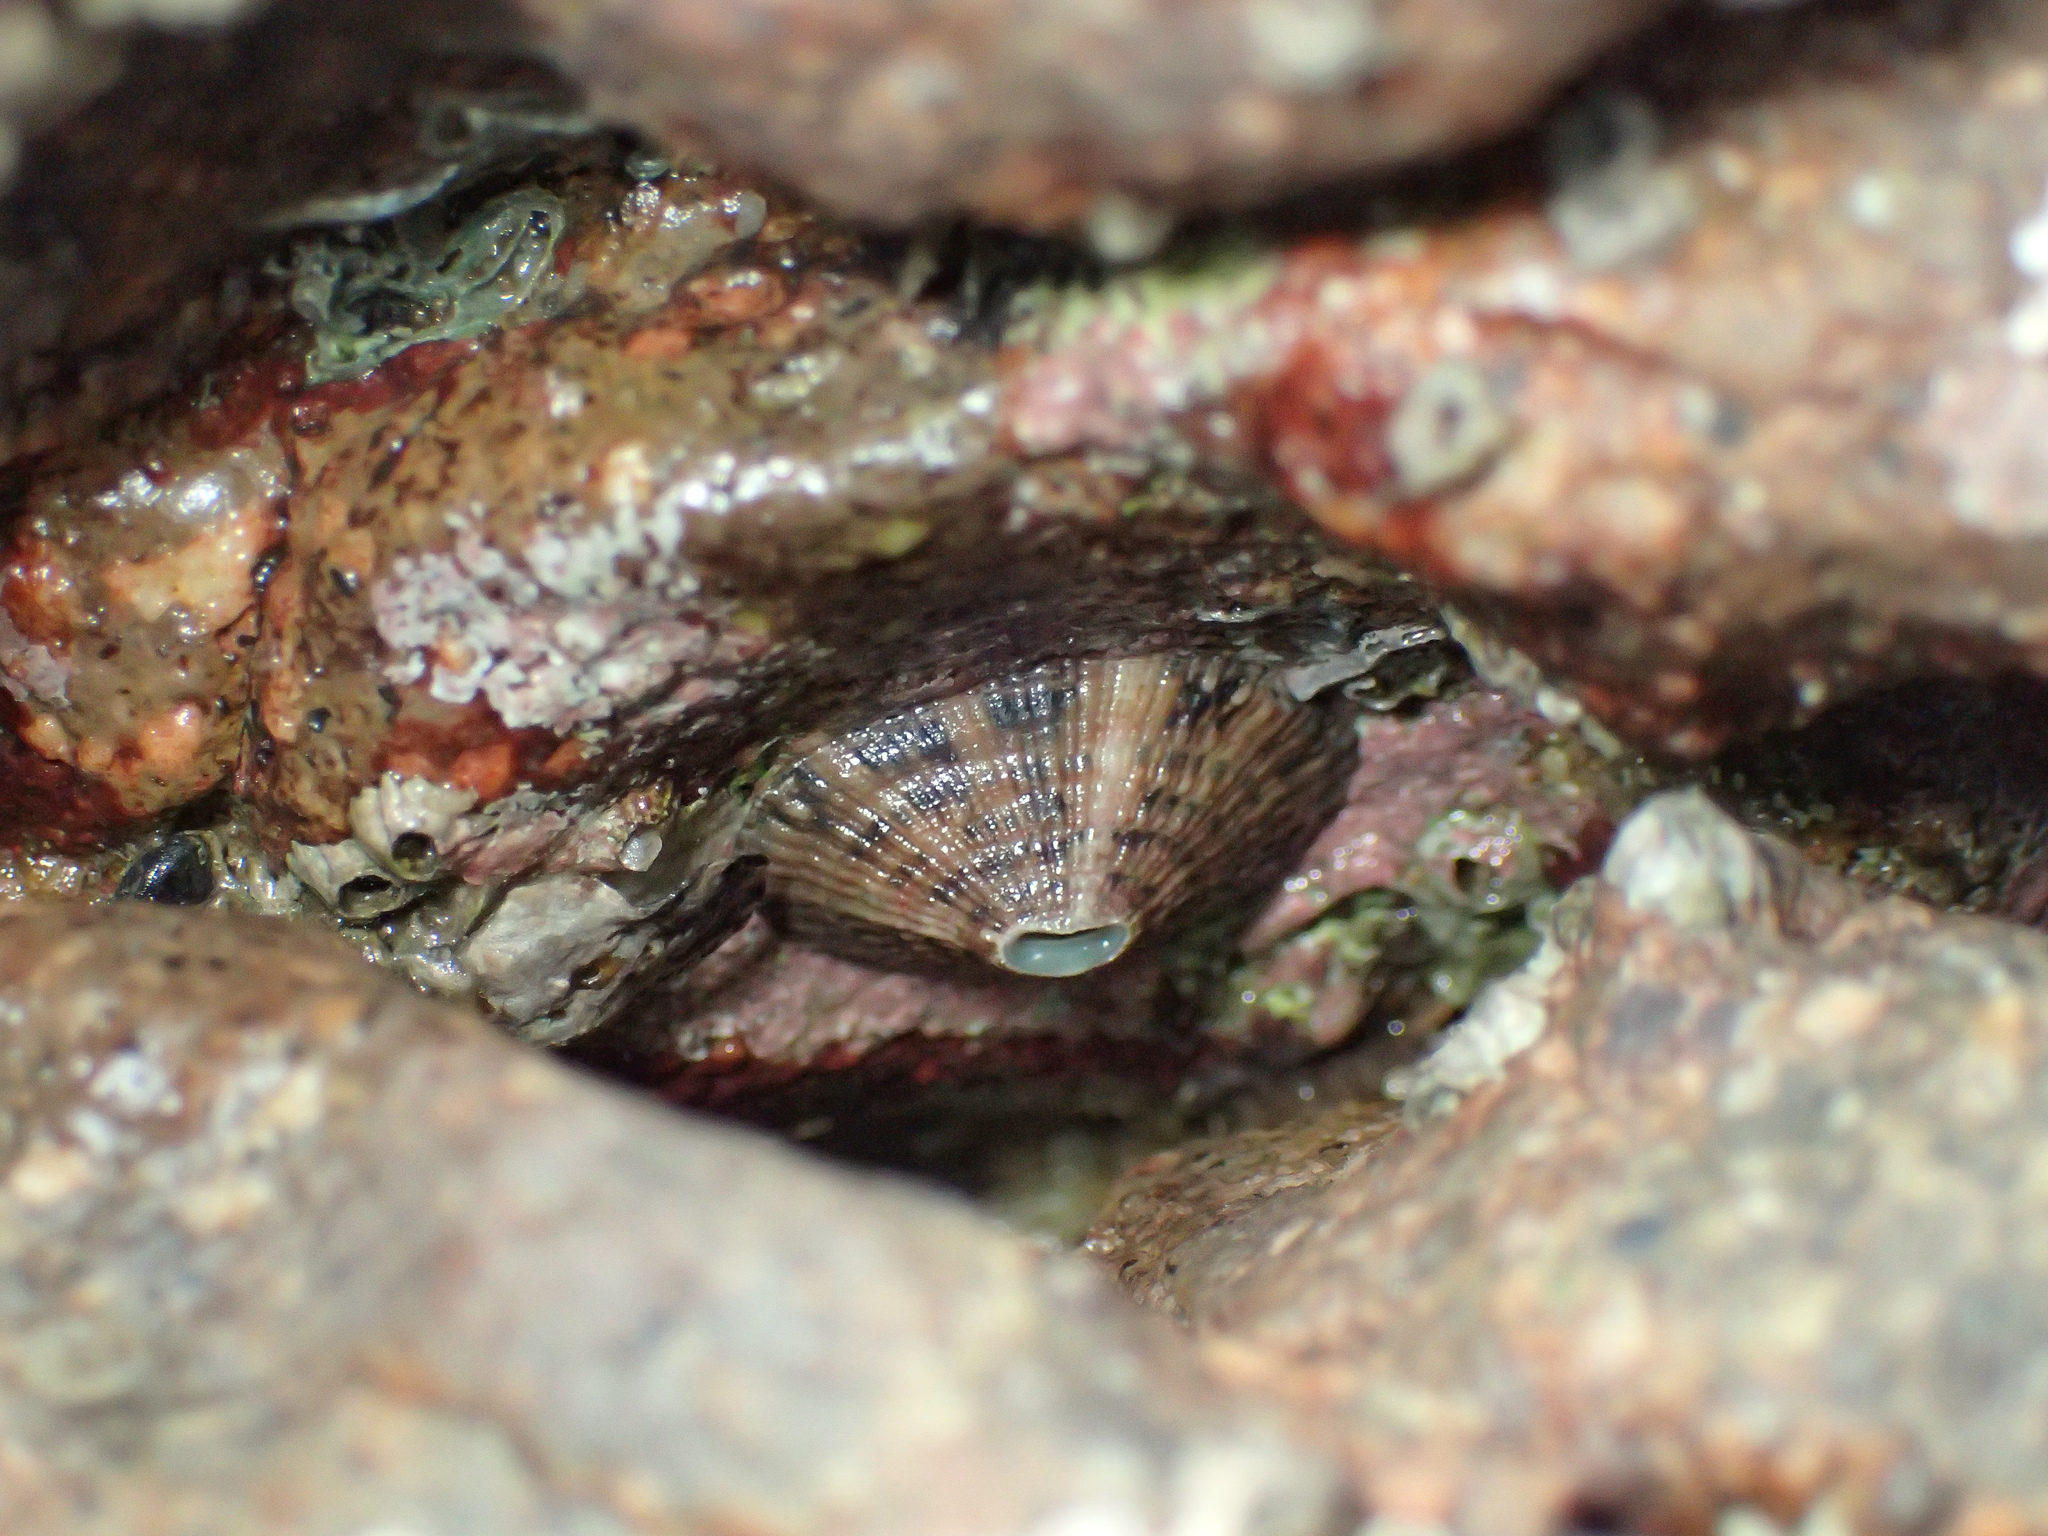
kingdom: Animalia
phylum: Mollusca
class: Gastropoda
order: Lepetellida
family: Fissurellidae
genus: Fissurella
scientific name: Fissurella virescens
